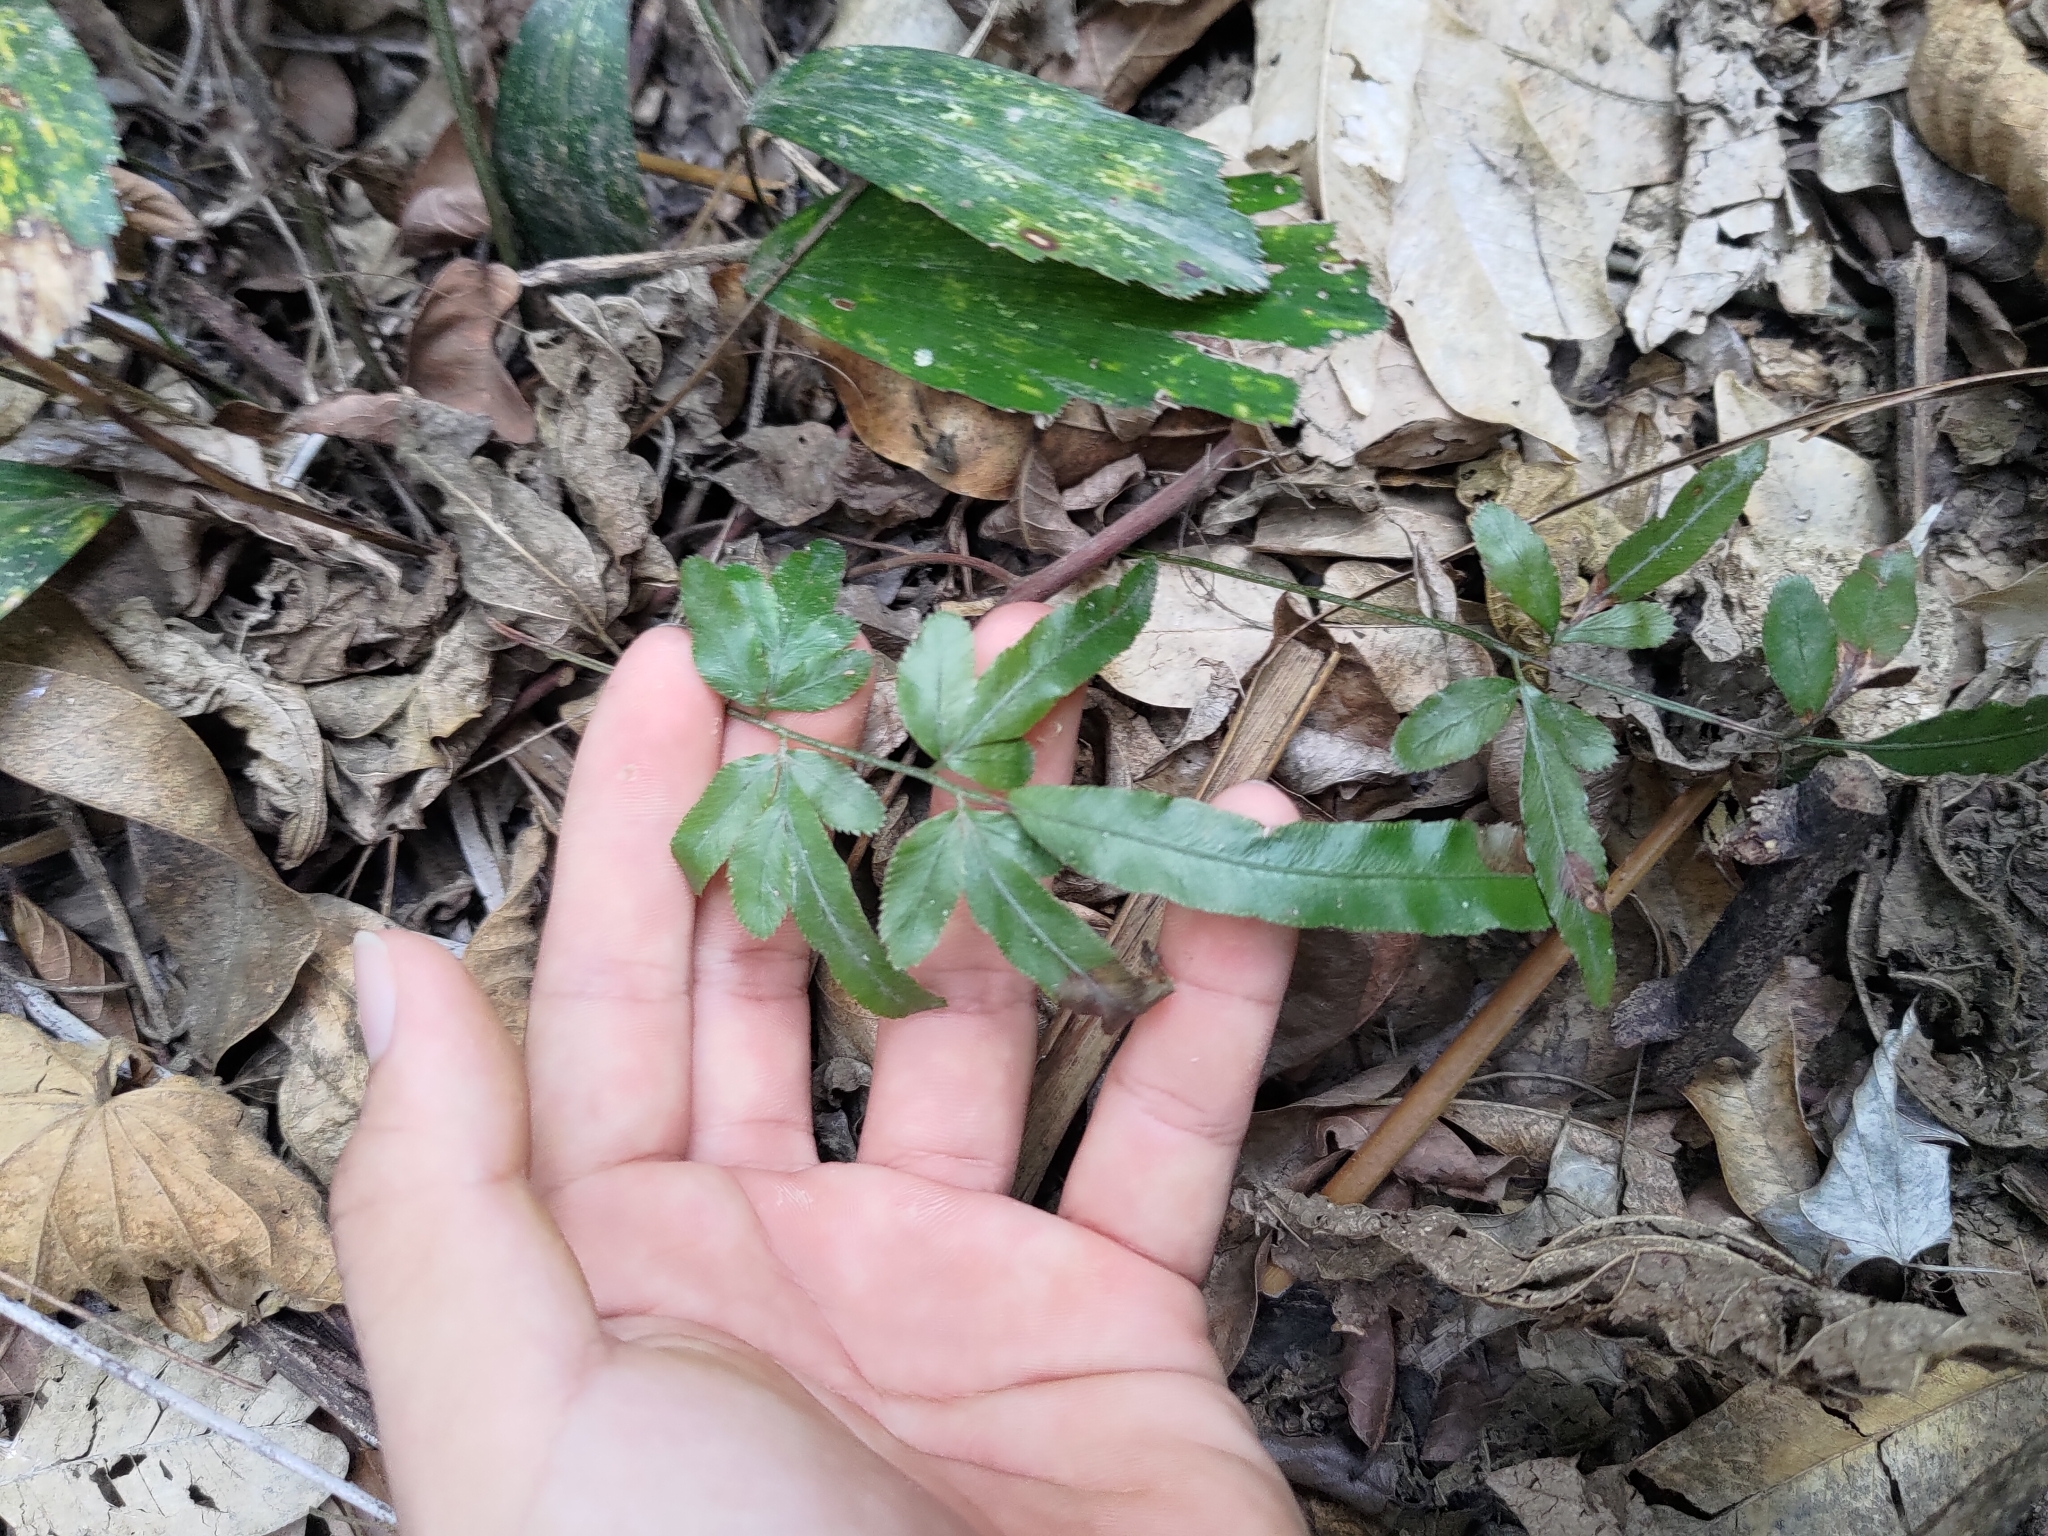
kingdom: Plantae
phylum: Tracheophyta
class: Polypodiopsida
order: Polypodiales
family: Pteridaceae
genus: Pteris
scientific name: Pteris ensiformis
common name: Sword brake
